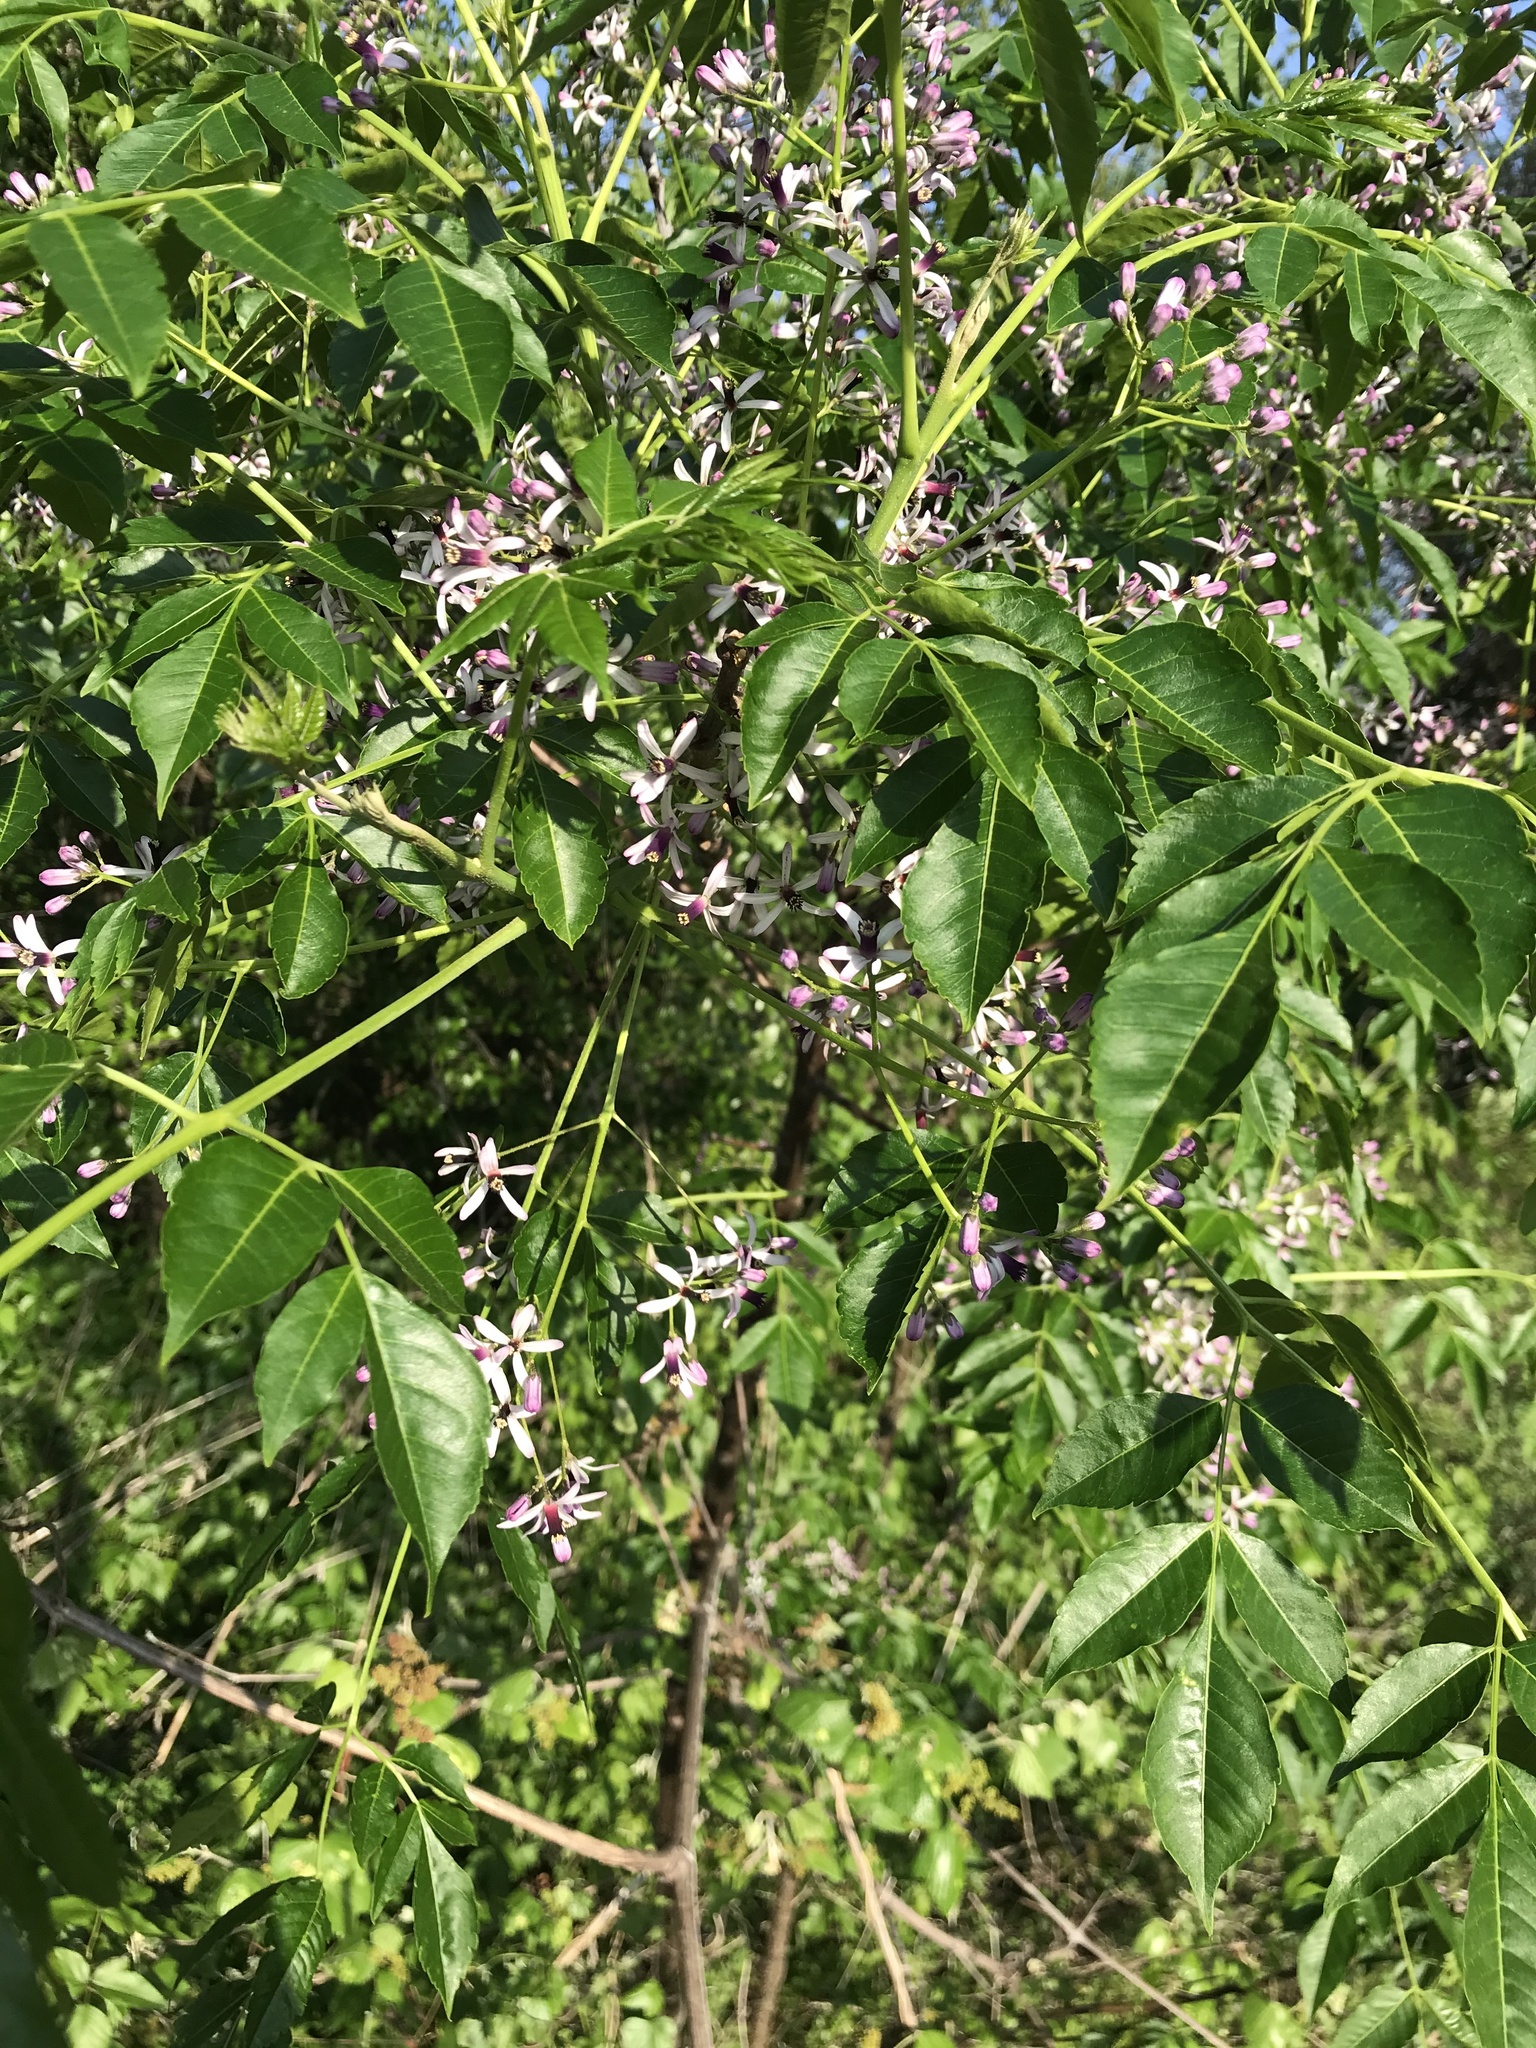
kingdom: Plantae
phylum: Tracheophyta
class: Magnoliopsida
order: Sapindales
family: Meliaceae
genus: Melia
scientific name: Melia azedarach
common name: Chinaberrytree
